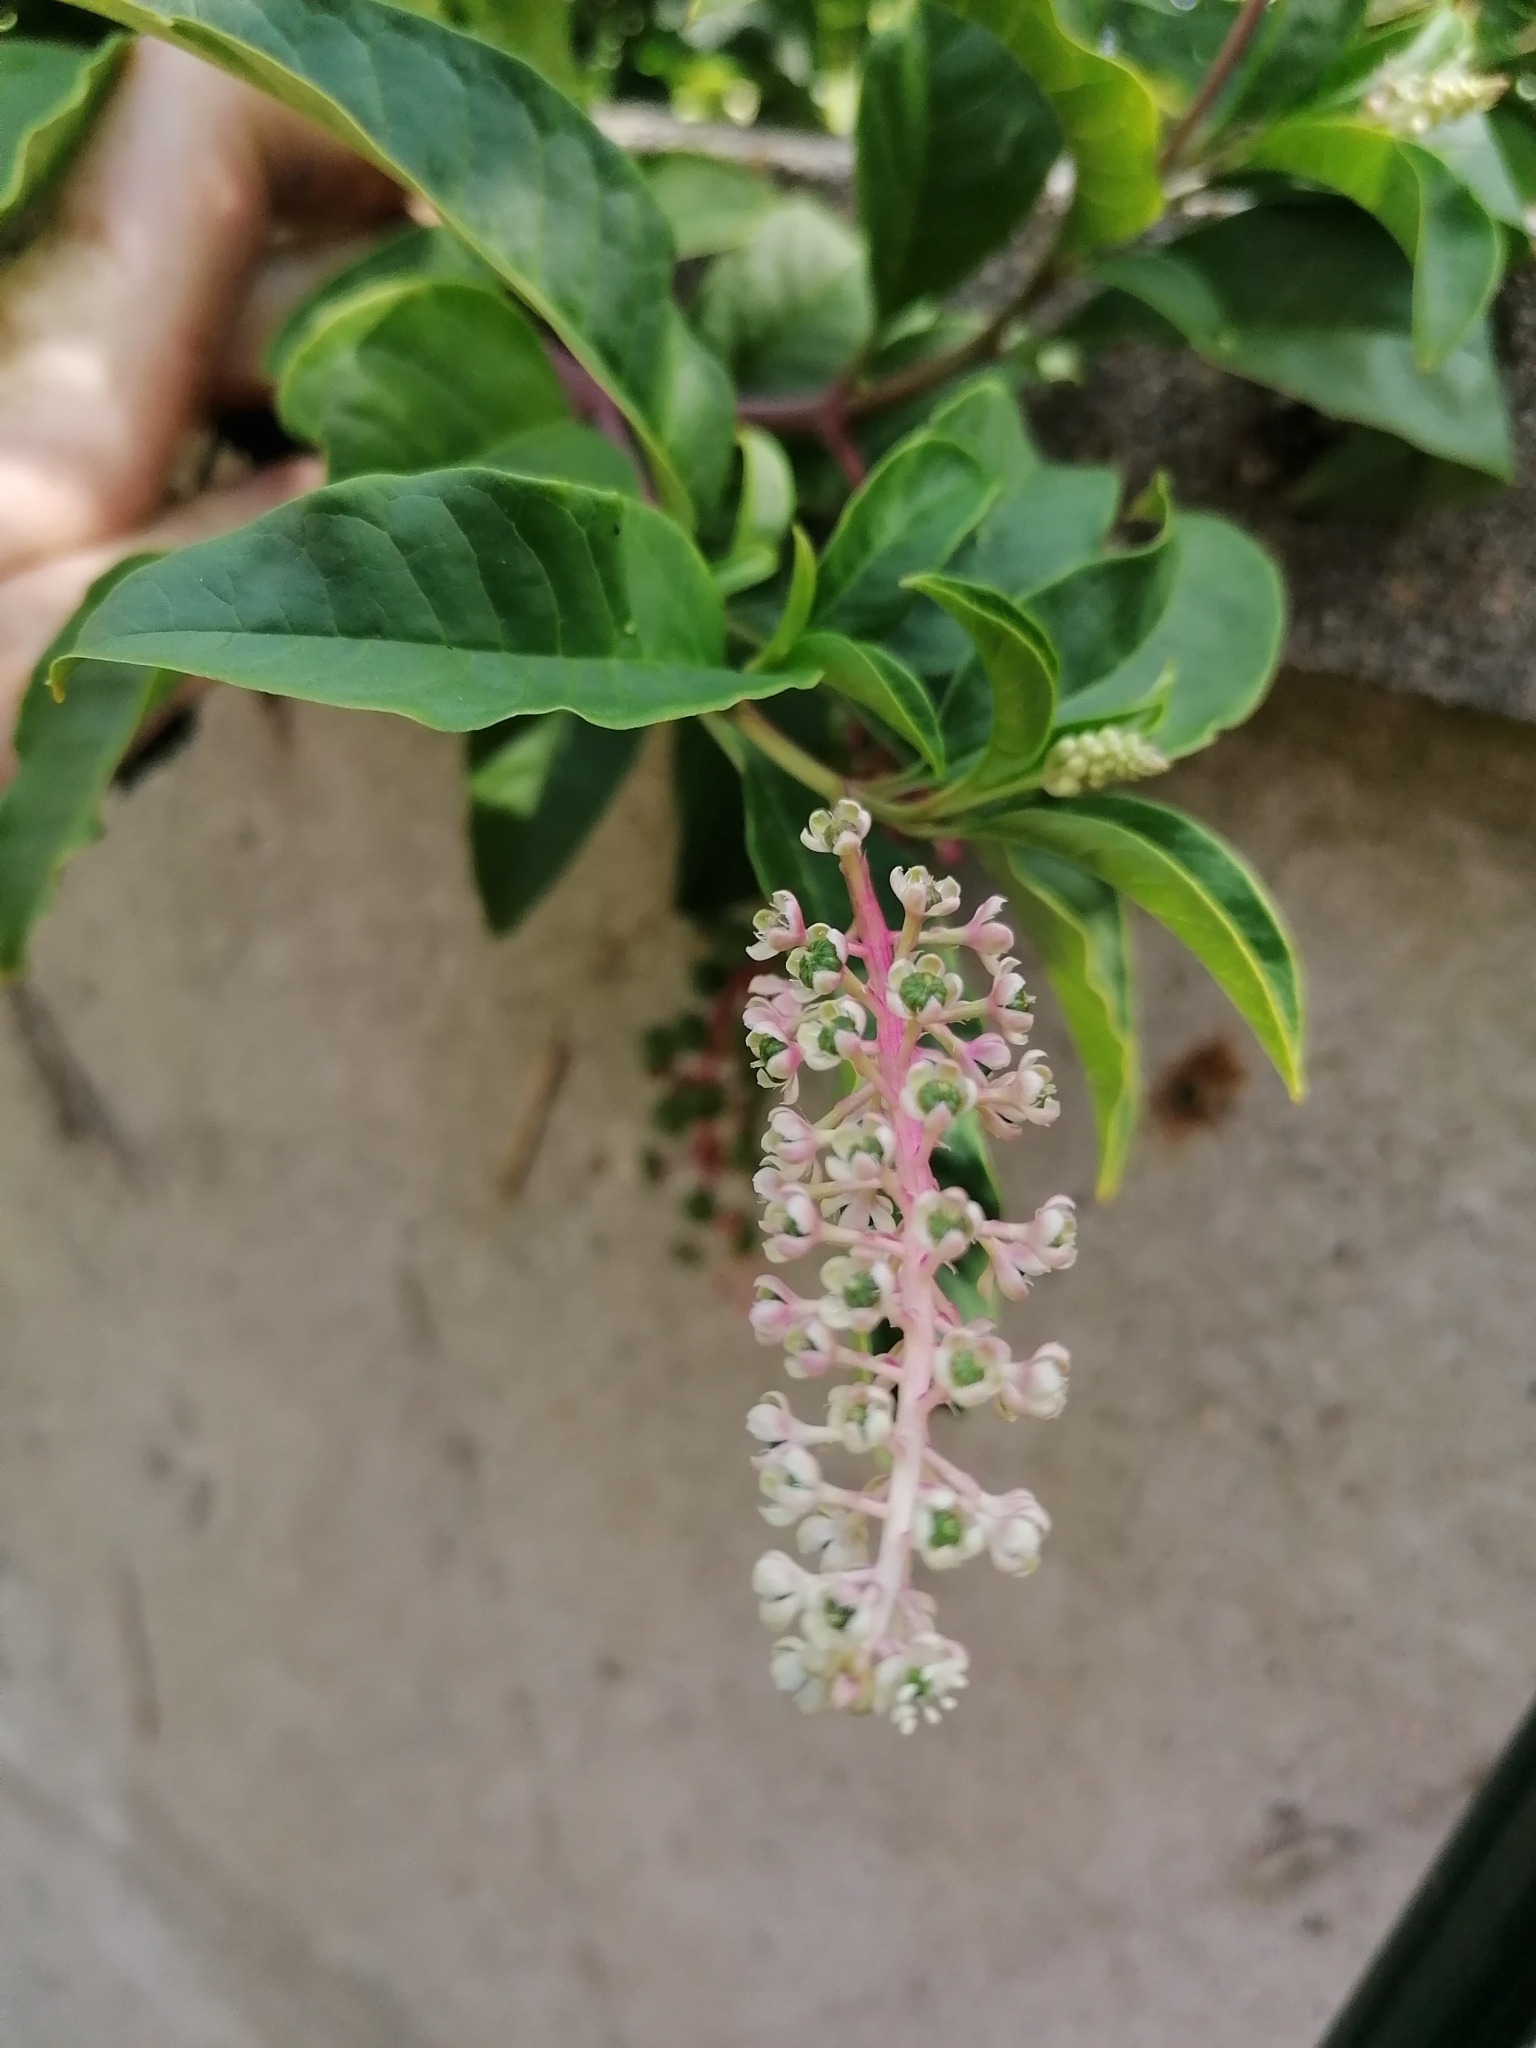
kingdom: Plantae
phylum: Tracheophyta
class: Magnoliopsida
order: Caryophyllales
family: Phytolaccaceae
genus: Phytolacca
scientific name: Phytolacca americana
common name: American pokeweed
